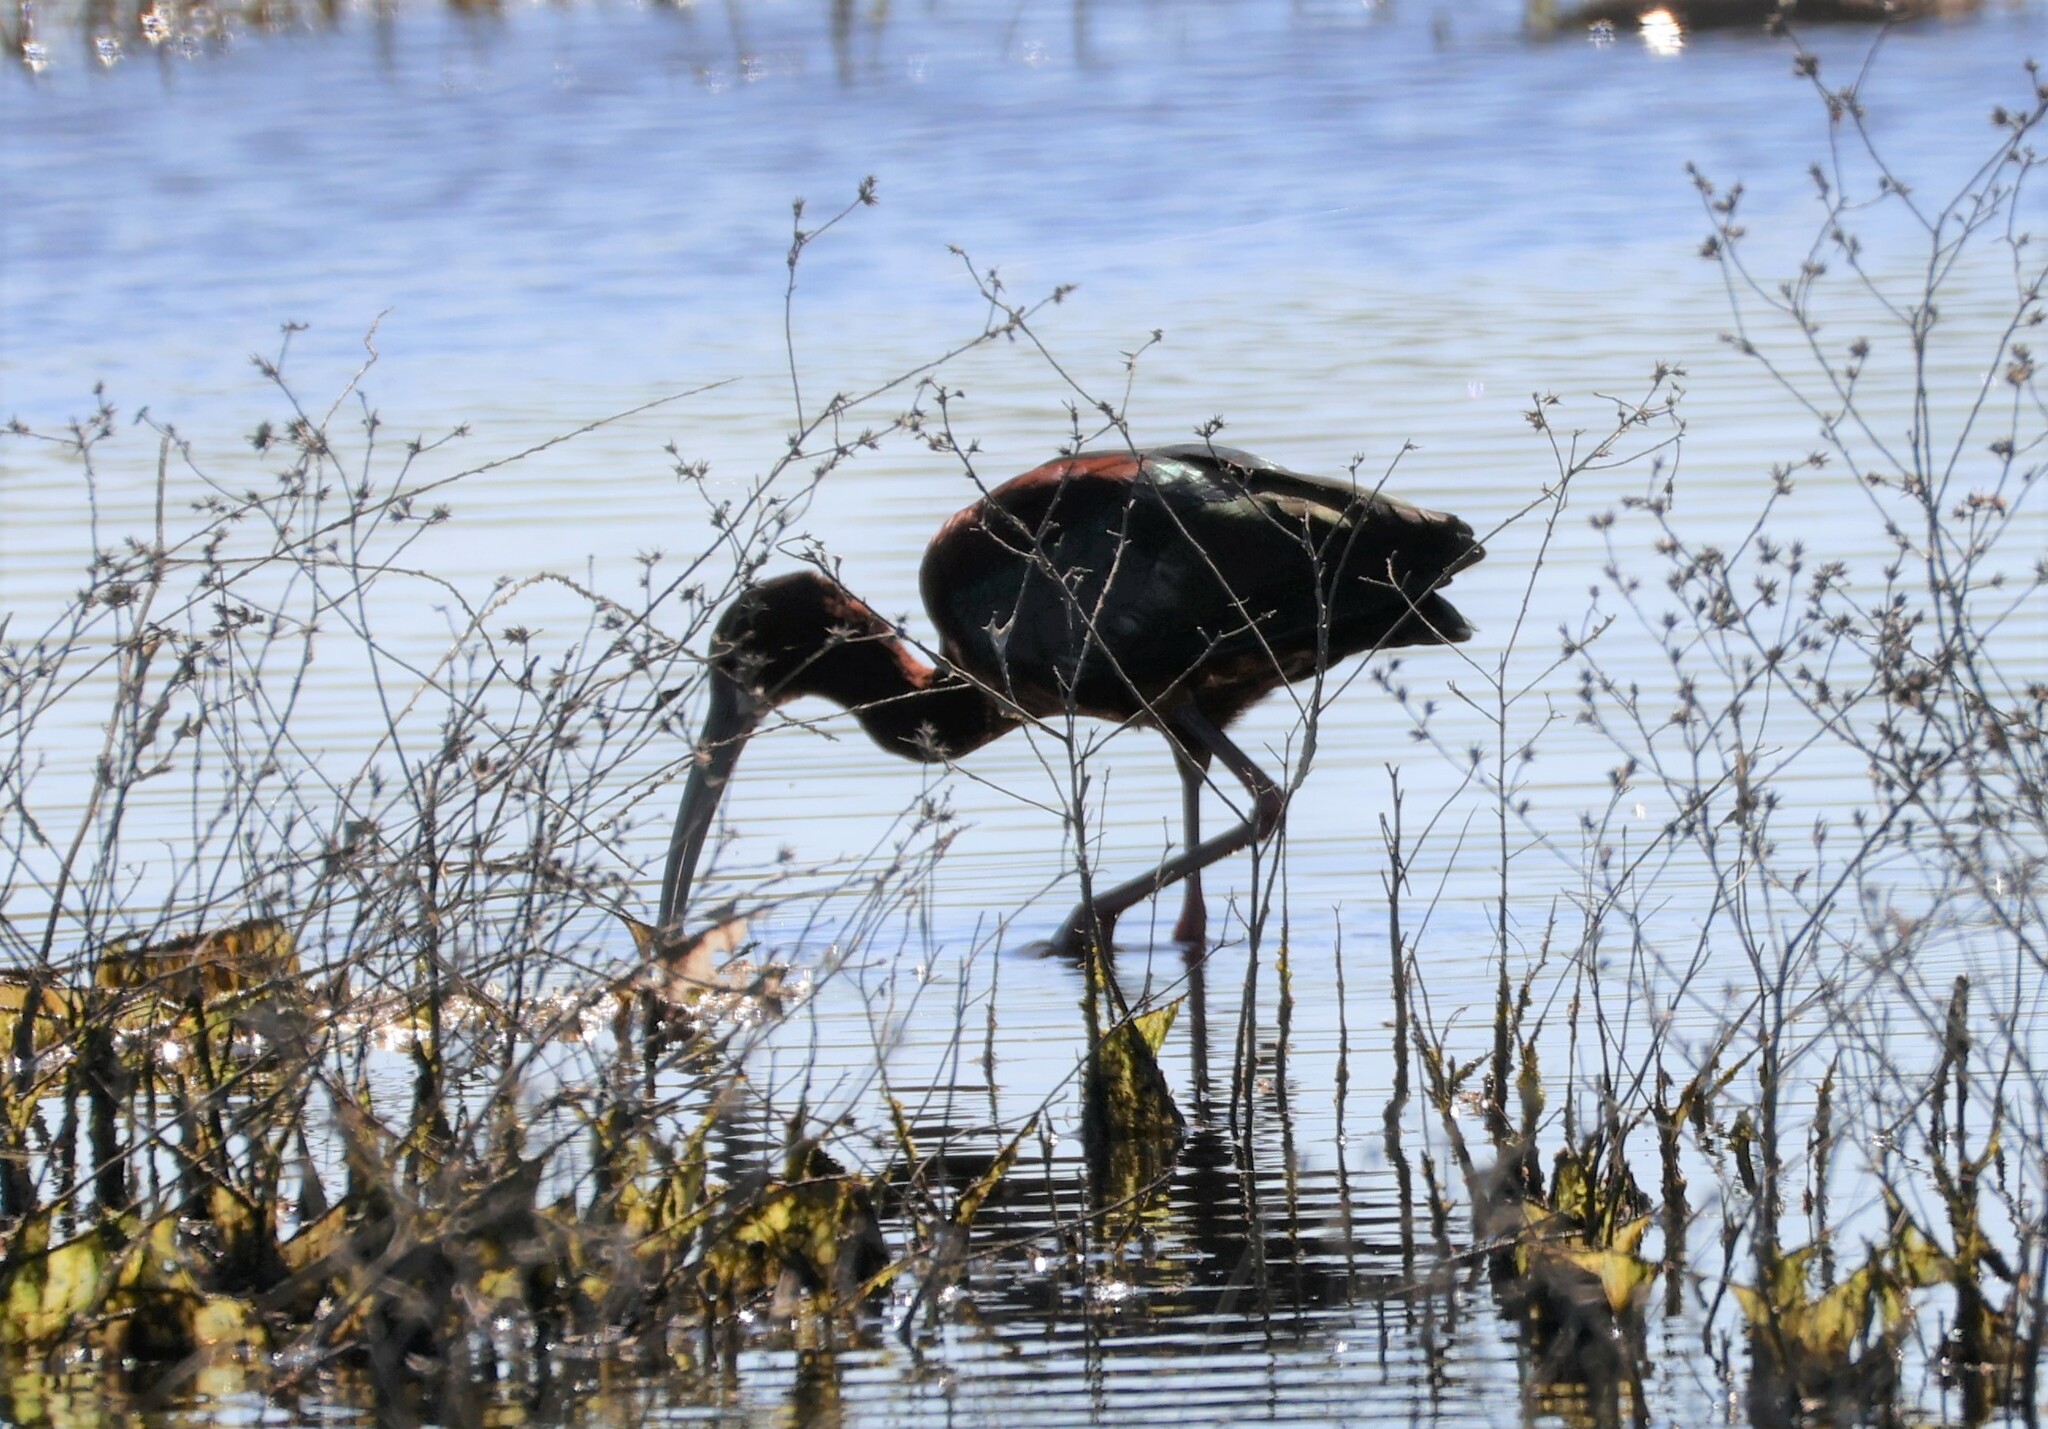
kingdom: Animalia
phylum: Chordata
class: Aves
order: Pelecaniformes
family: Threskiornithidae
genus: Plegadis
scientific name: Plegadis chihi
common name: White-faced ibis
